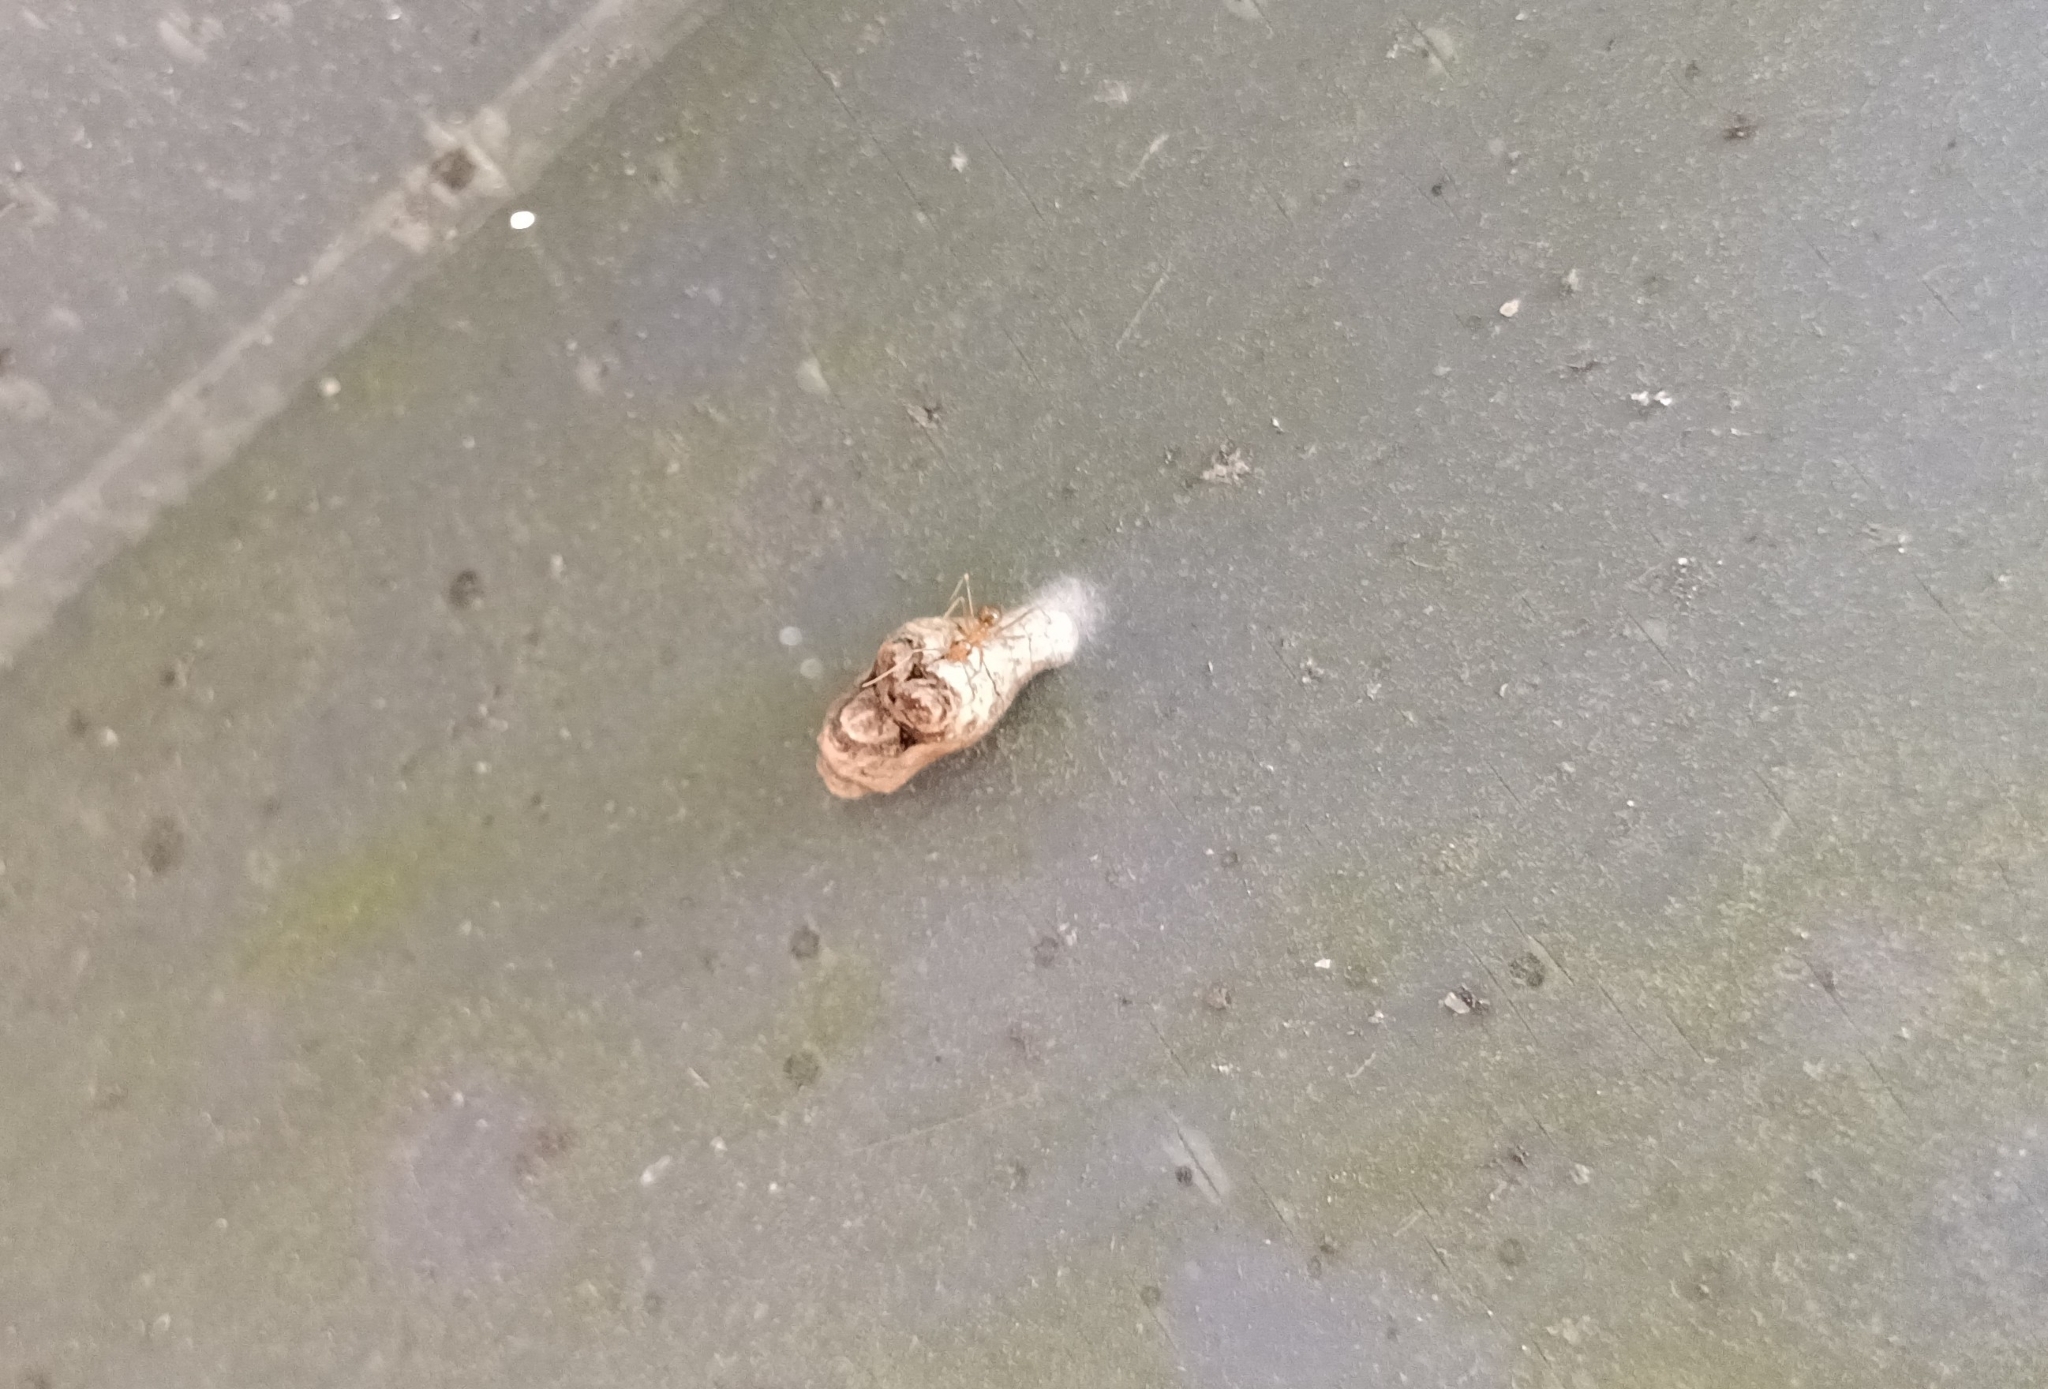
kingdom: Animalia
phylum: Arthropoda
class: Insecta
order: Lepidoptera
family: Lycaenidae
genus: Tajuria
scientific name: Tajuria cippus
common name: Peacock royal
